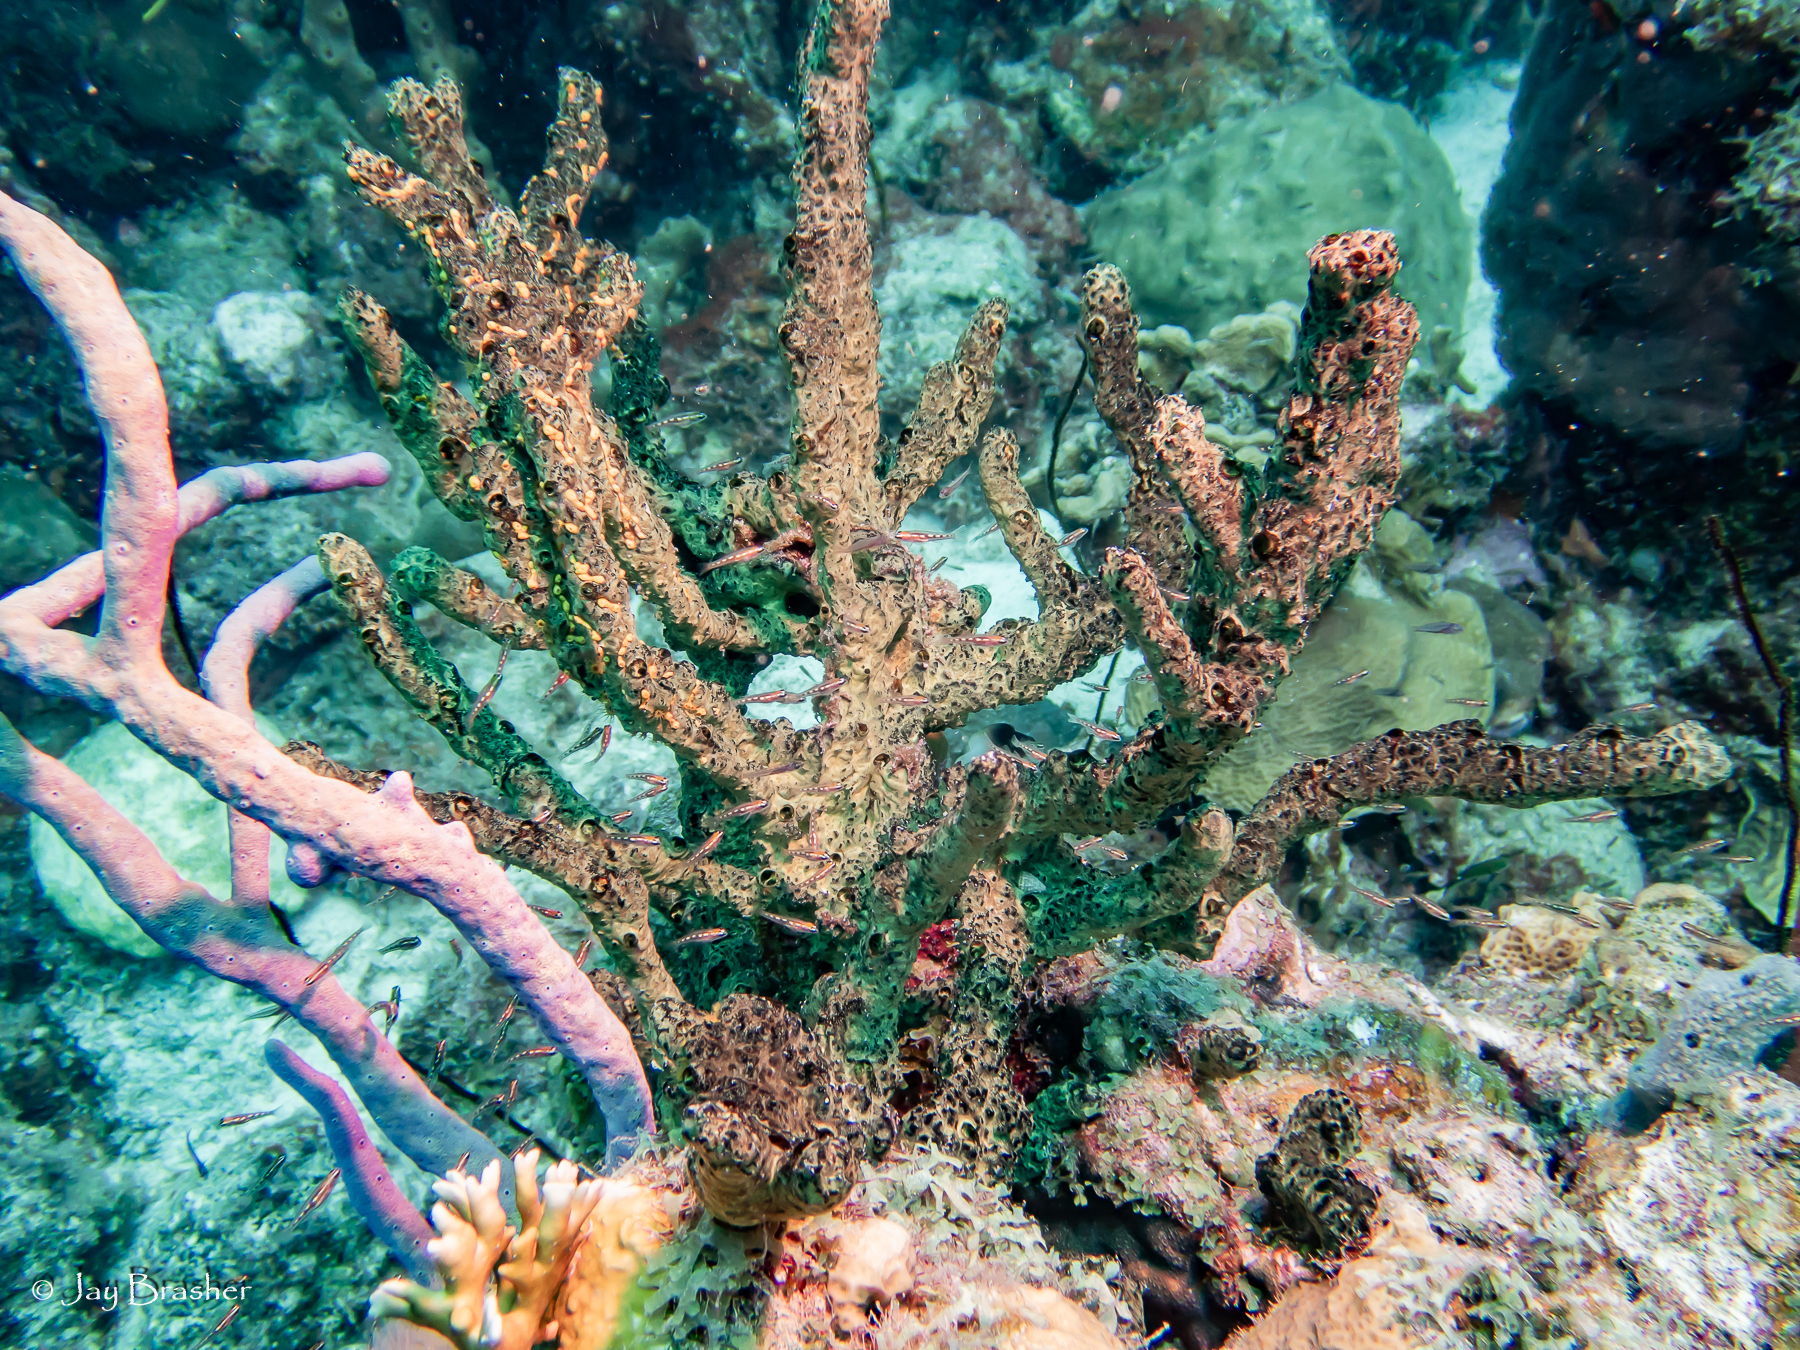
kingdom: Animalia
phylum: Porifera
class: Demospongiae
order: Poecilosclerida
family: Iotrochotidae
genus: Iotrochota
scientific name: Iotrochota birotulata
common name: Purple bleeding sponge
